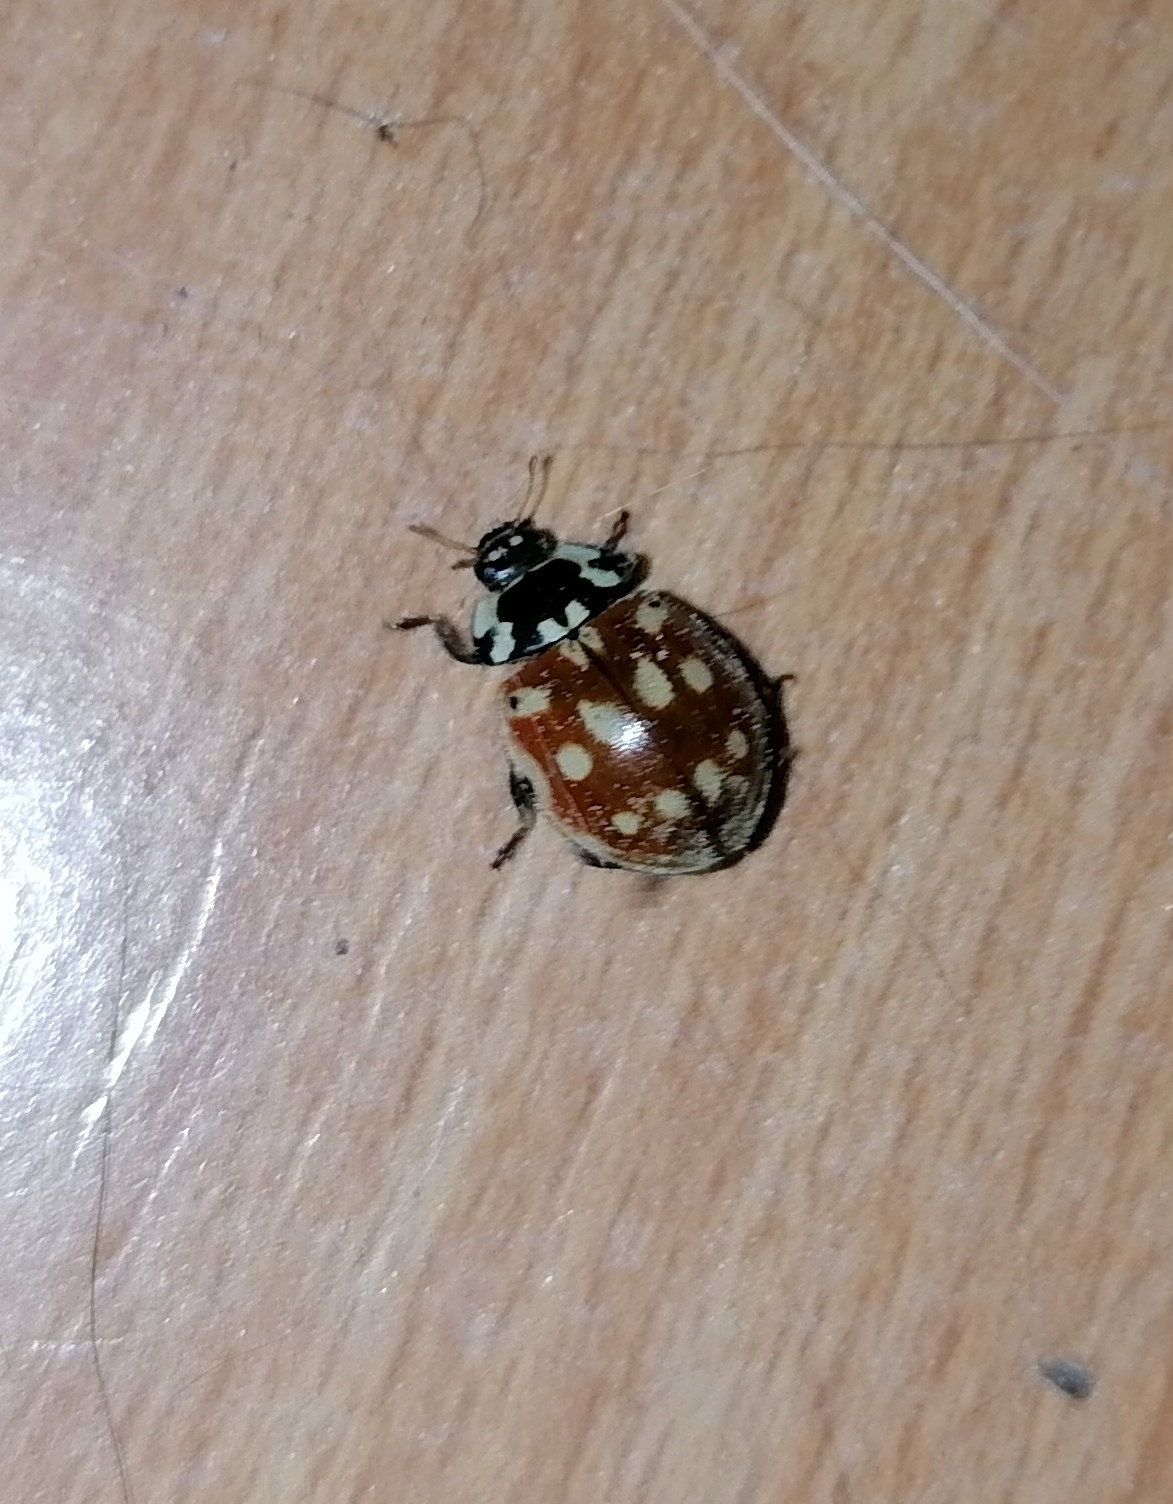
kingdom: Animalia
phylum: Arthropoda
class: Insecta
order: Coleoptera
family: Coccinellidae
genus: Anatis
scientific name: Anatis ocellata
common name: Eyed ladybird
